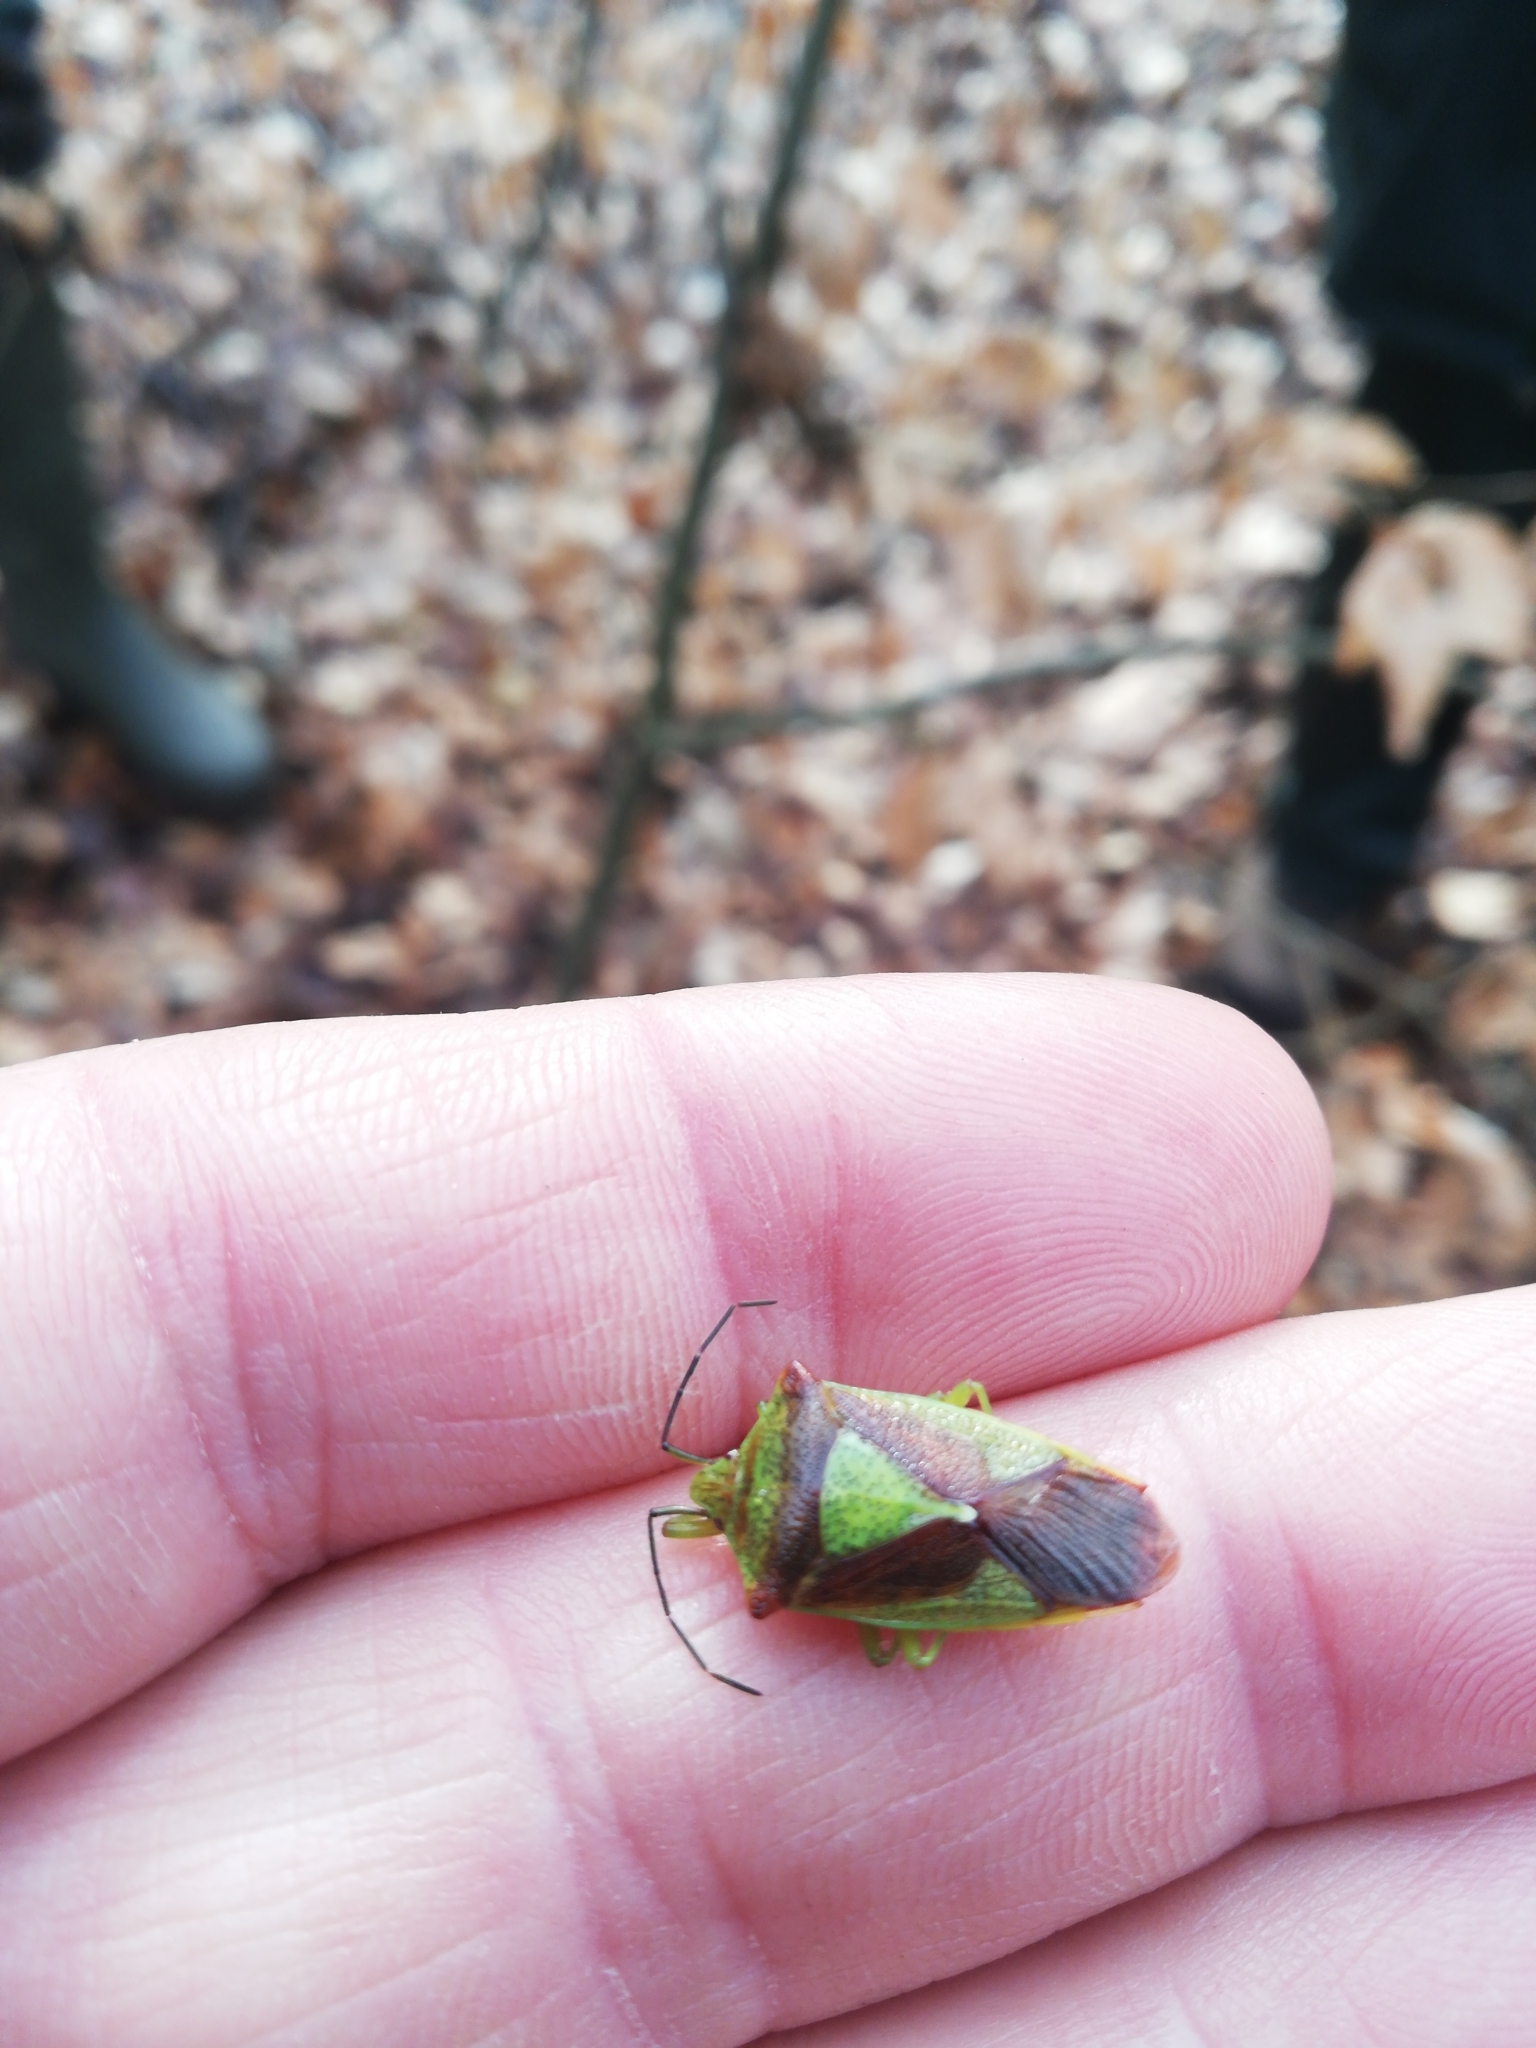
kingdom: Animalia
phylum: Arthropoda
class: Insecta
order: Hemiptera
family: Acanthosomatidae
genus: Acanthosoma
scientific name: Acanthosoma haemorrhoidale
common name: Hawthorn shieldbug
